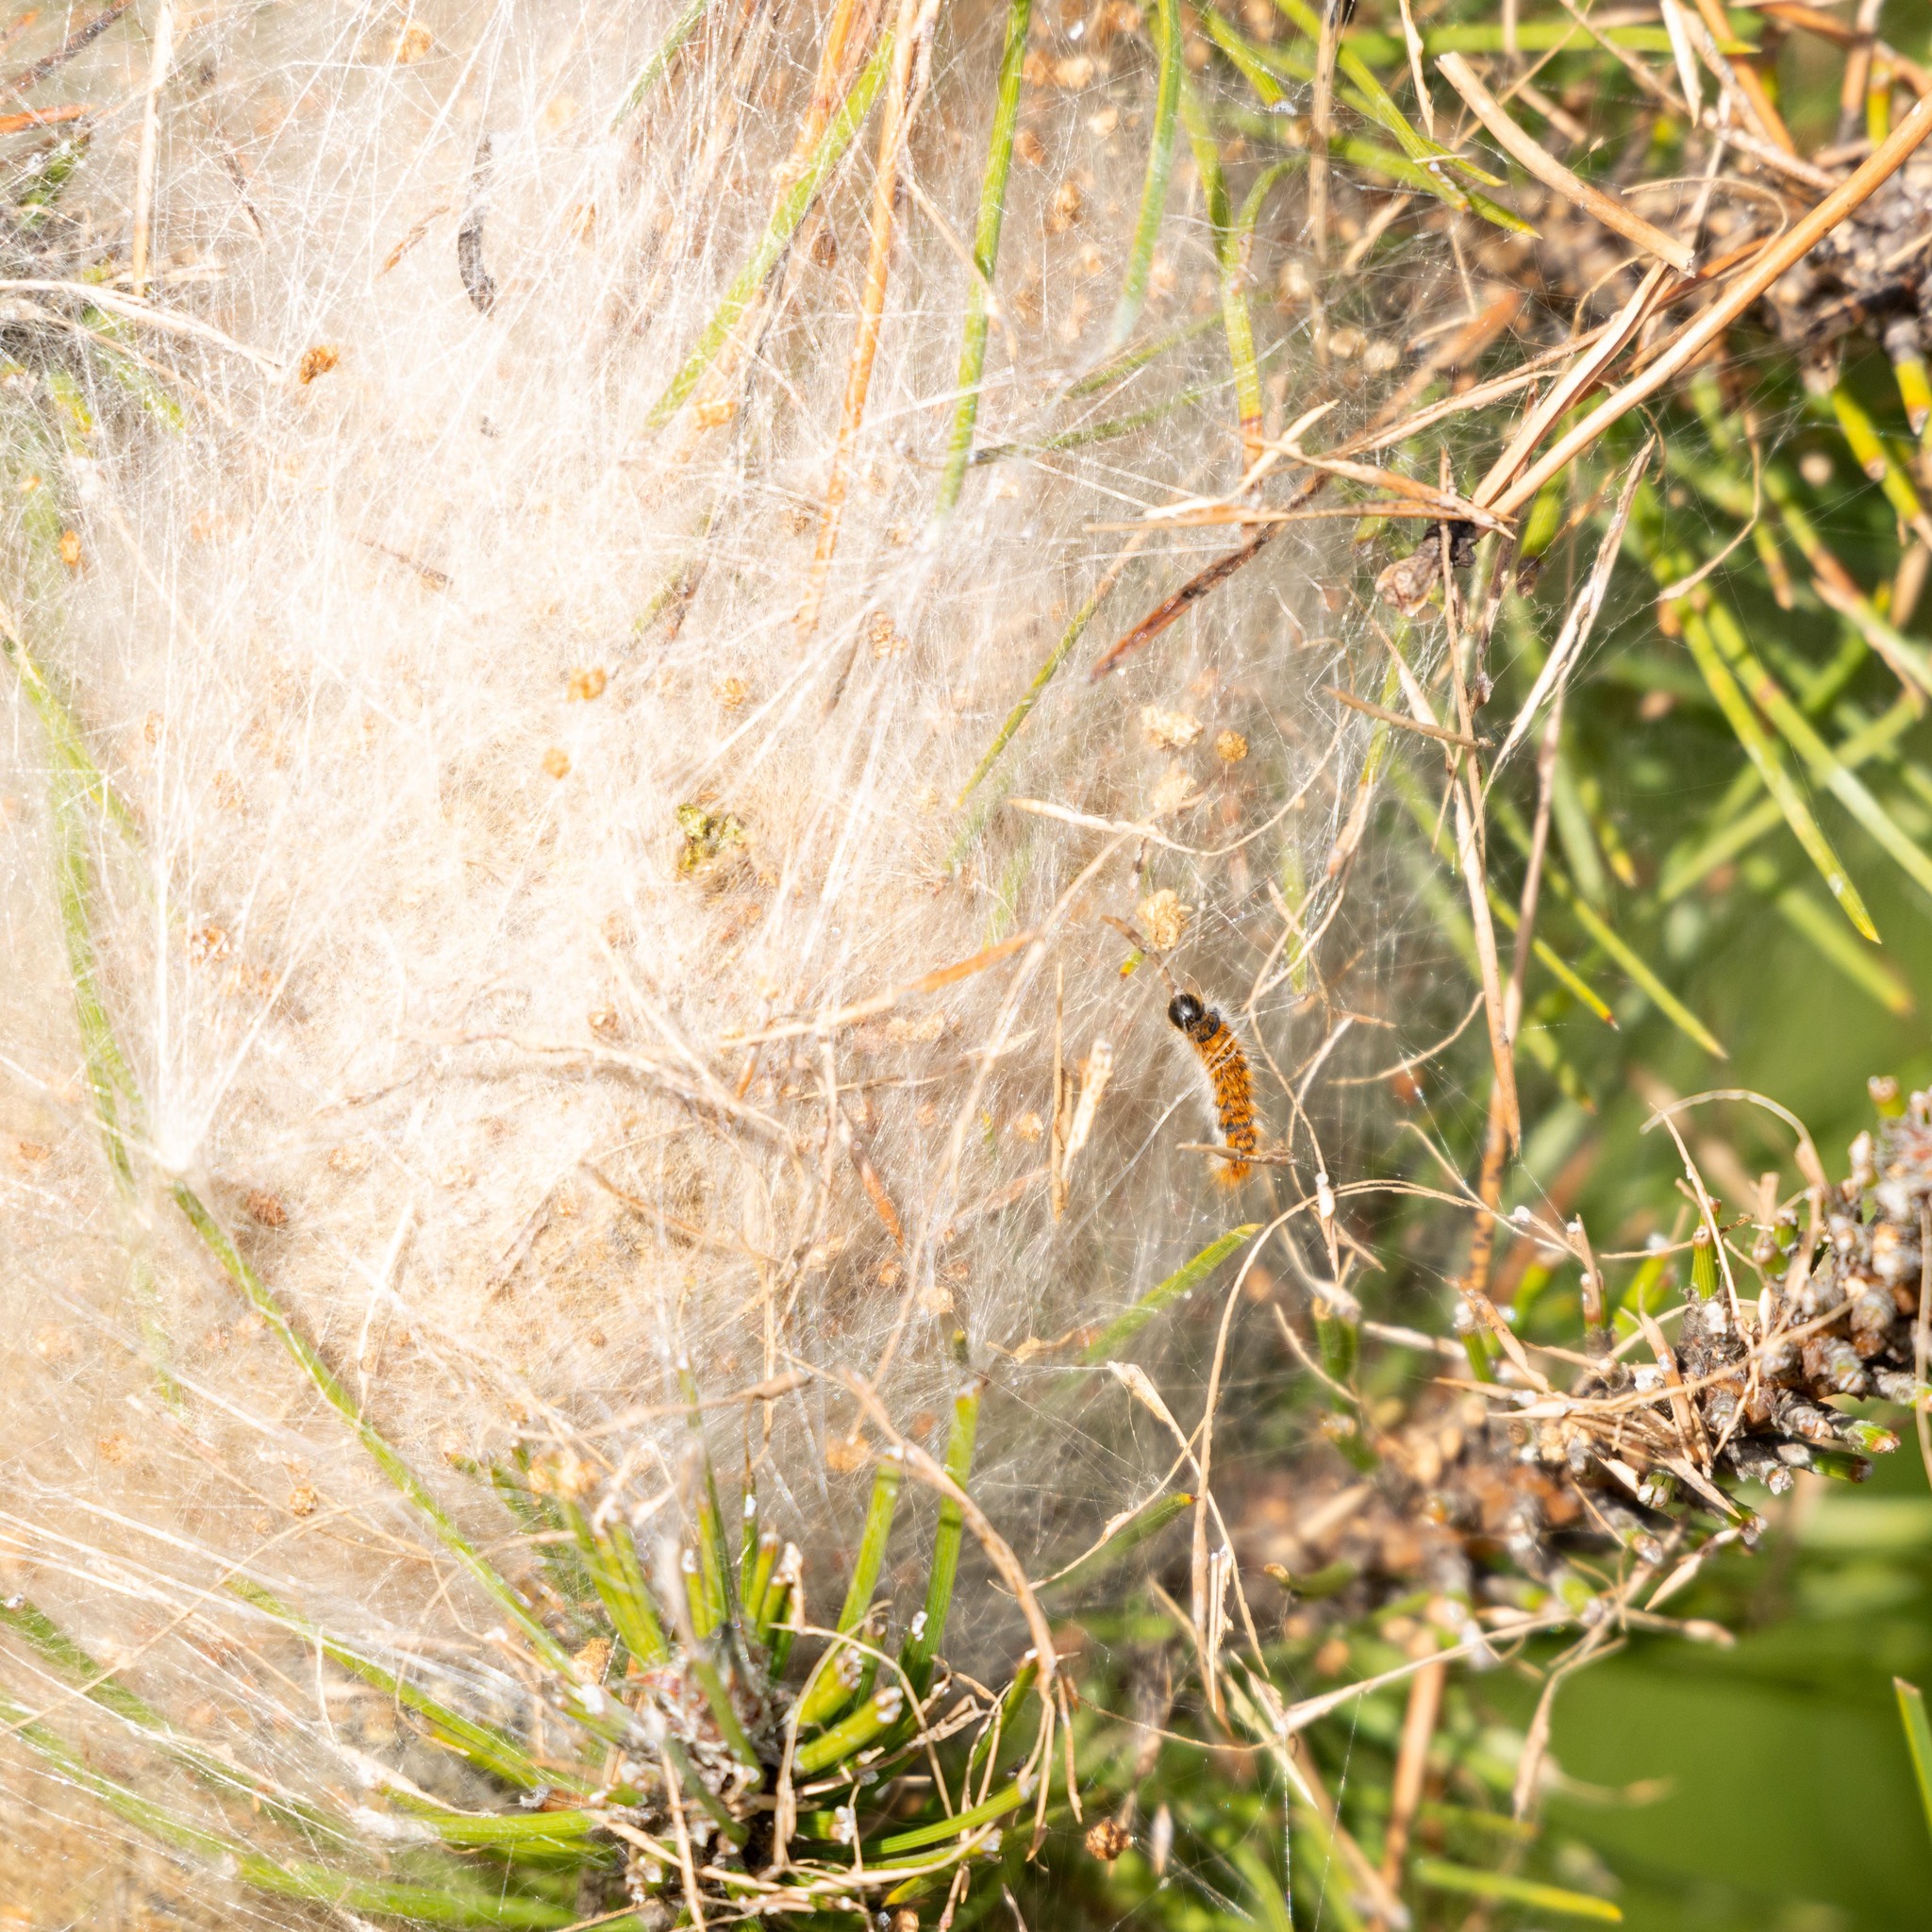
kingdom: Animalia
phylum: Arthropoda
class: Insecta
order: Lepidoptera
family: Notodontidae
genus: Thaumetopoea
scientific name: Thaumetopoea pityocampa
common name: Pine processionary
